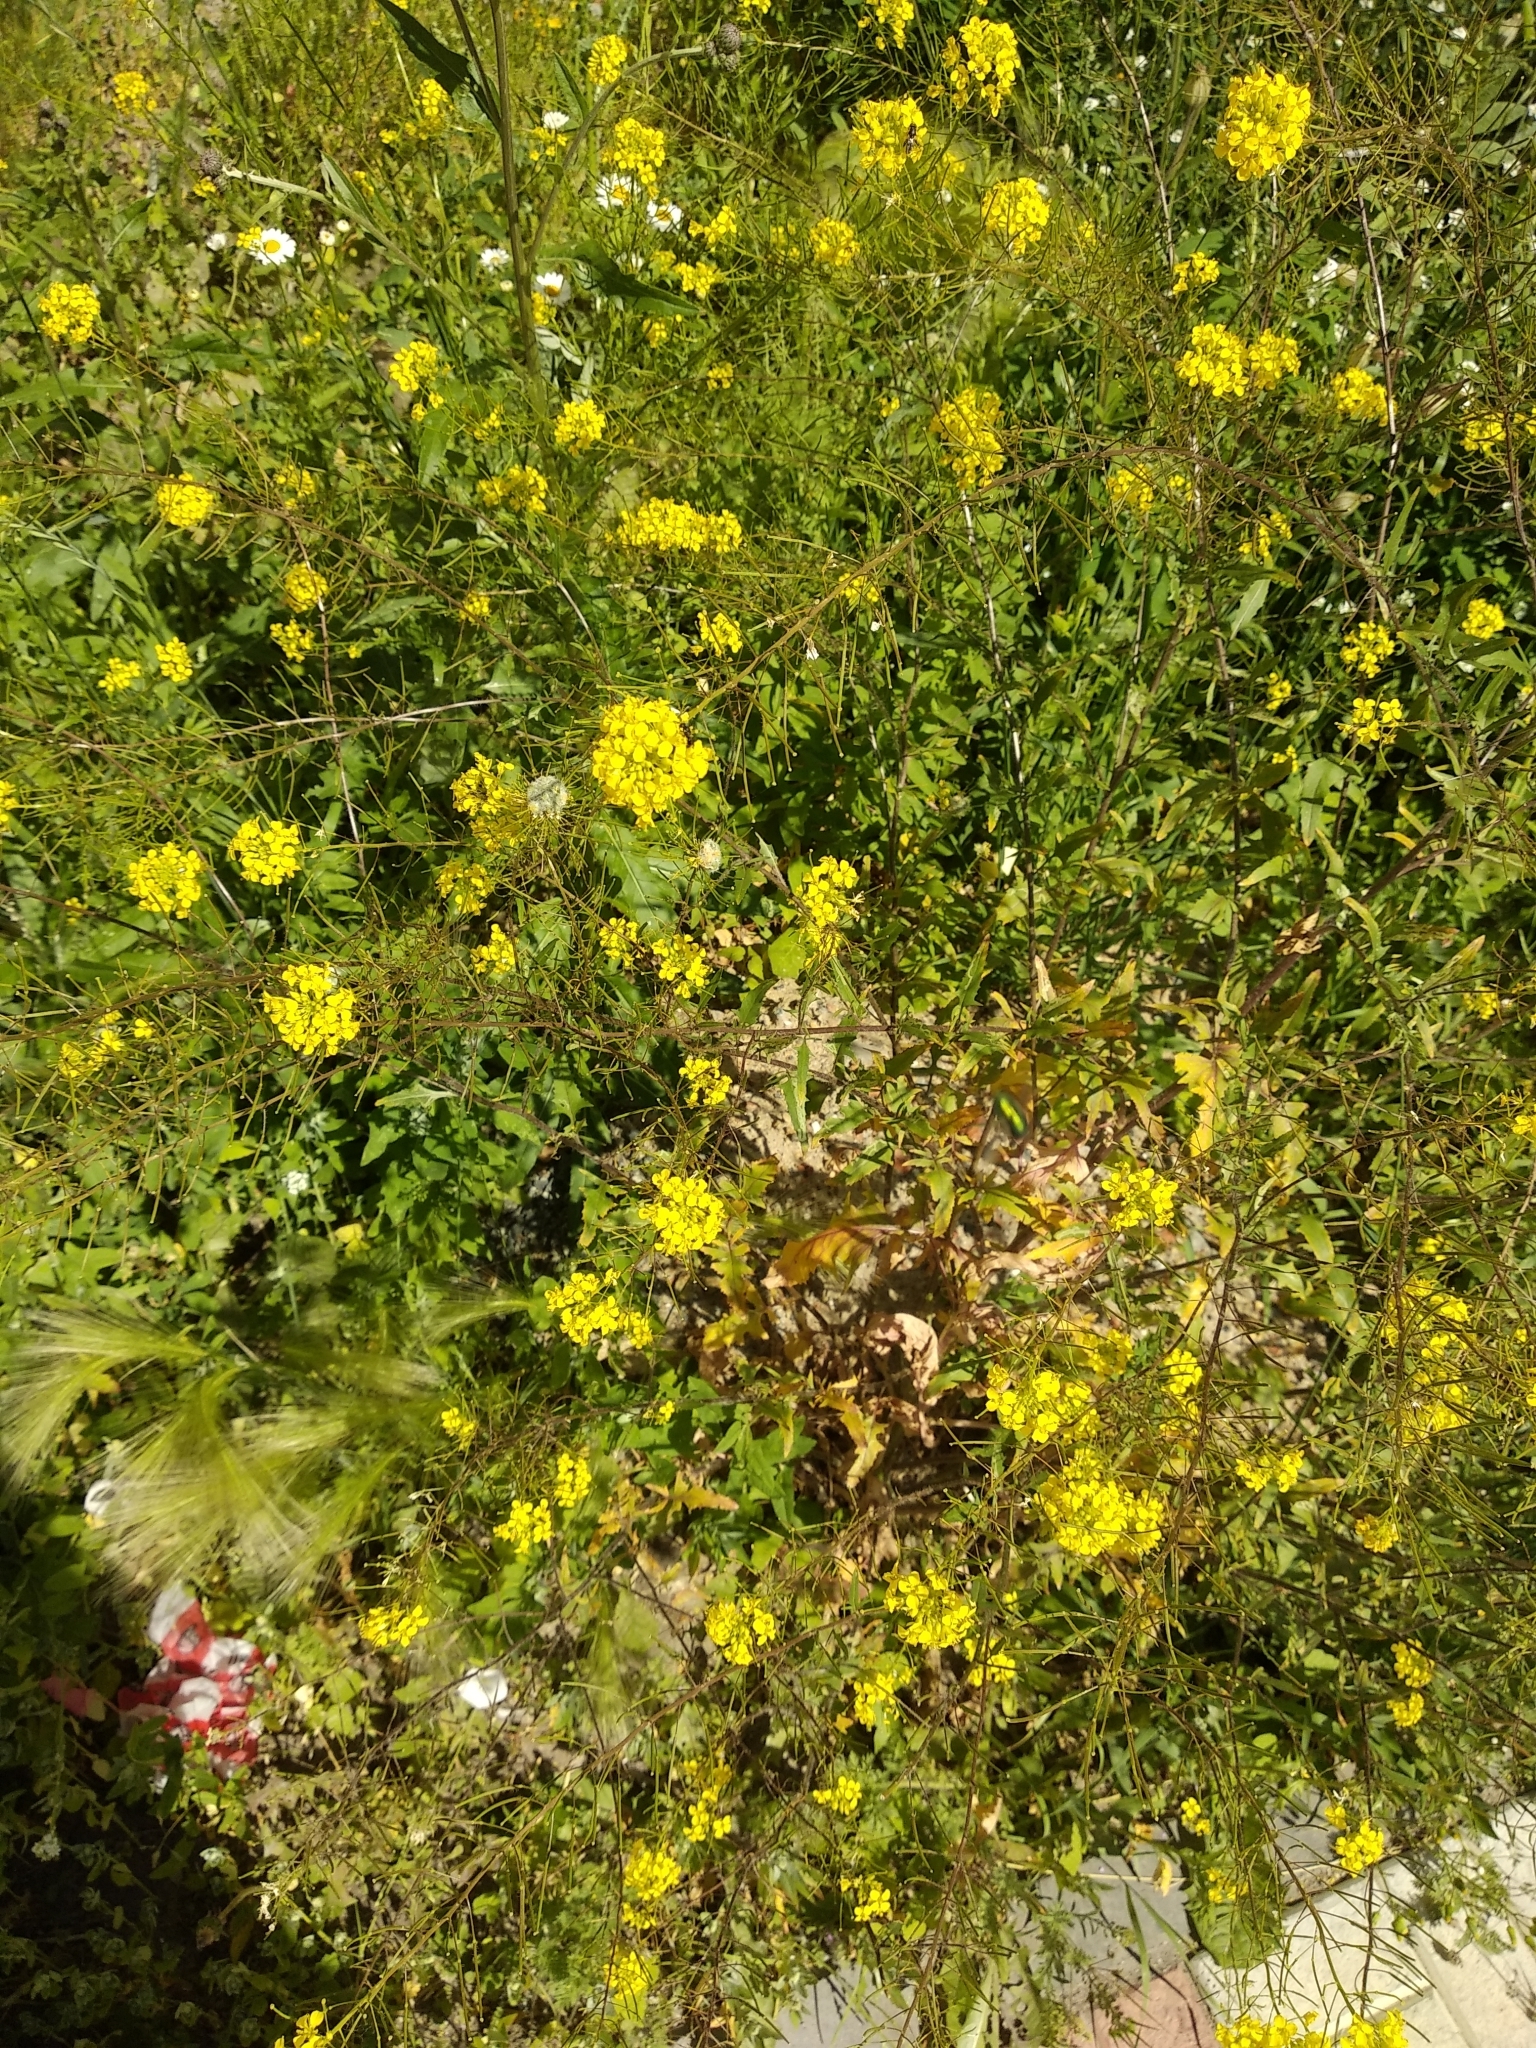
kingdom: Plantae
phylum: Tracheophyta
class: Magnoliopsida
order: Brassicales
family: Brassicaceae
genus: Sisymbrium
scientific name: Sisymbrium loeselii
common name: False london-rocket
